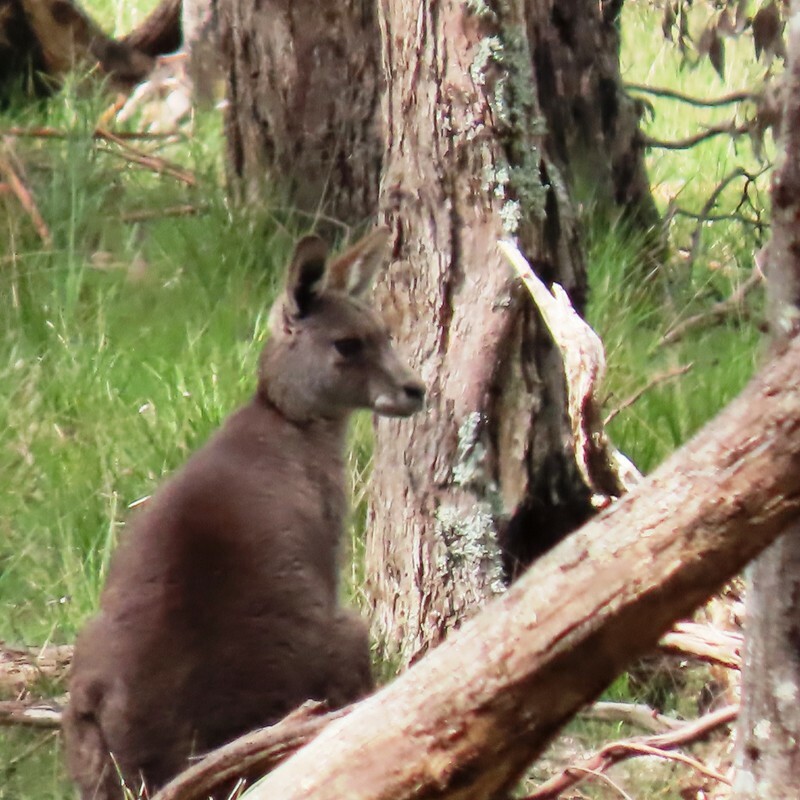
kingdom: Animalia
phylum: Chordata
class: Mammalia
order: Diprotodontia
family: Macropodidae
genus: Macropus
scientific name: Macropus giganteus
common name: Eastern grey kangaroo
